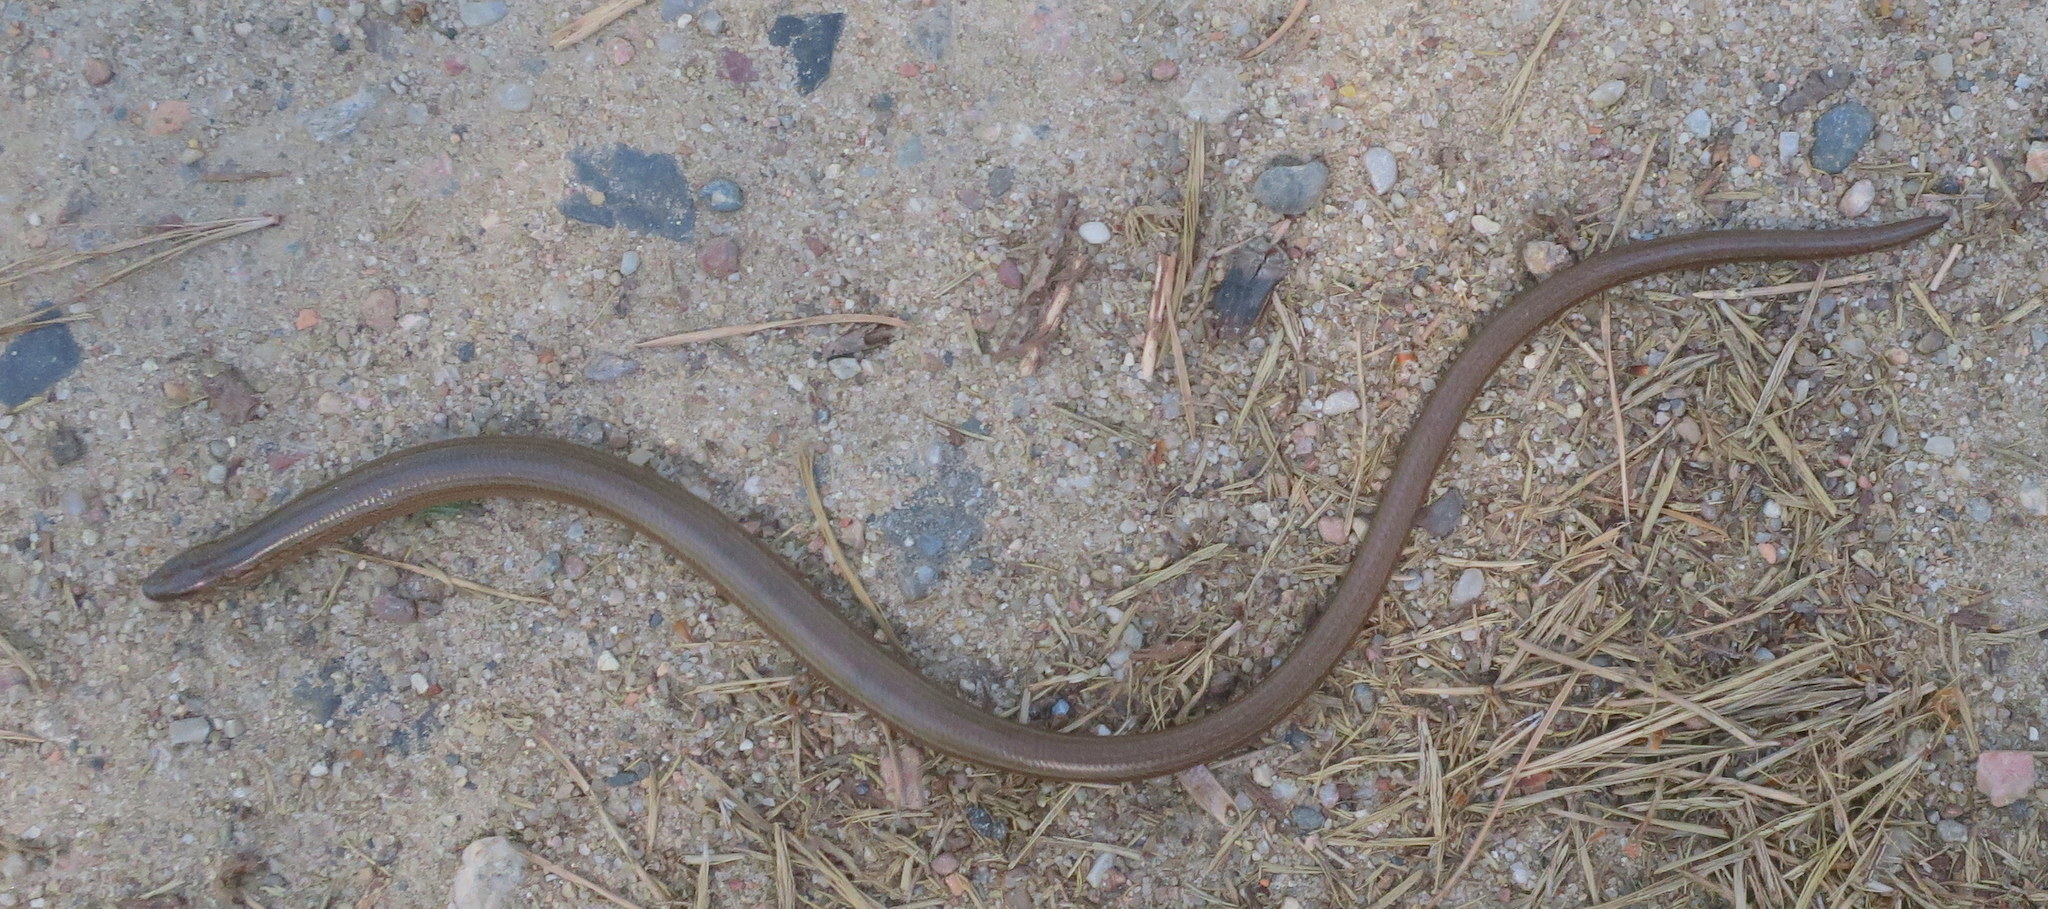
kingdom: Animalia
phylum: Chordata
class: Squamata
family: Anguidae
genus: Anguis
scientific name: Anguis fragilis
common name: Slow worm
